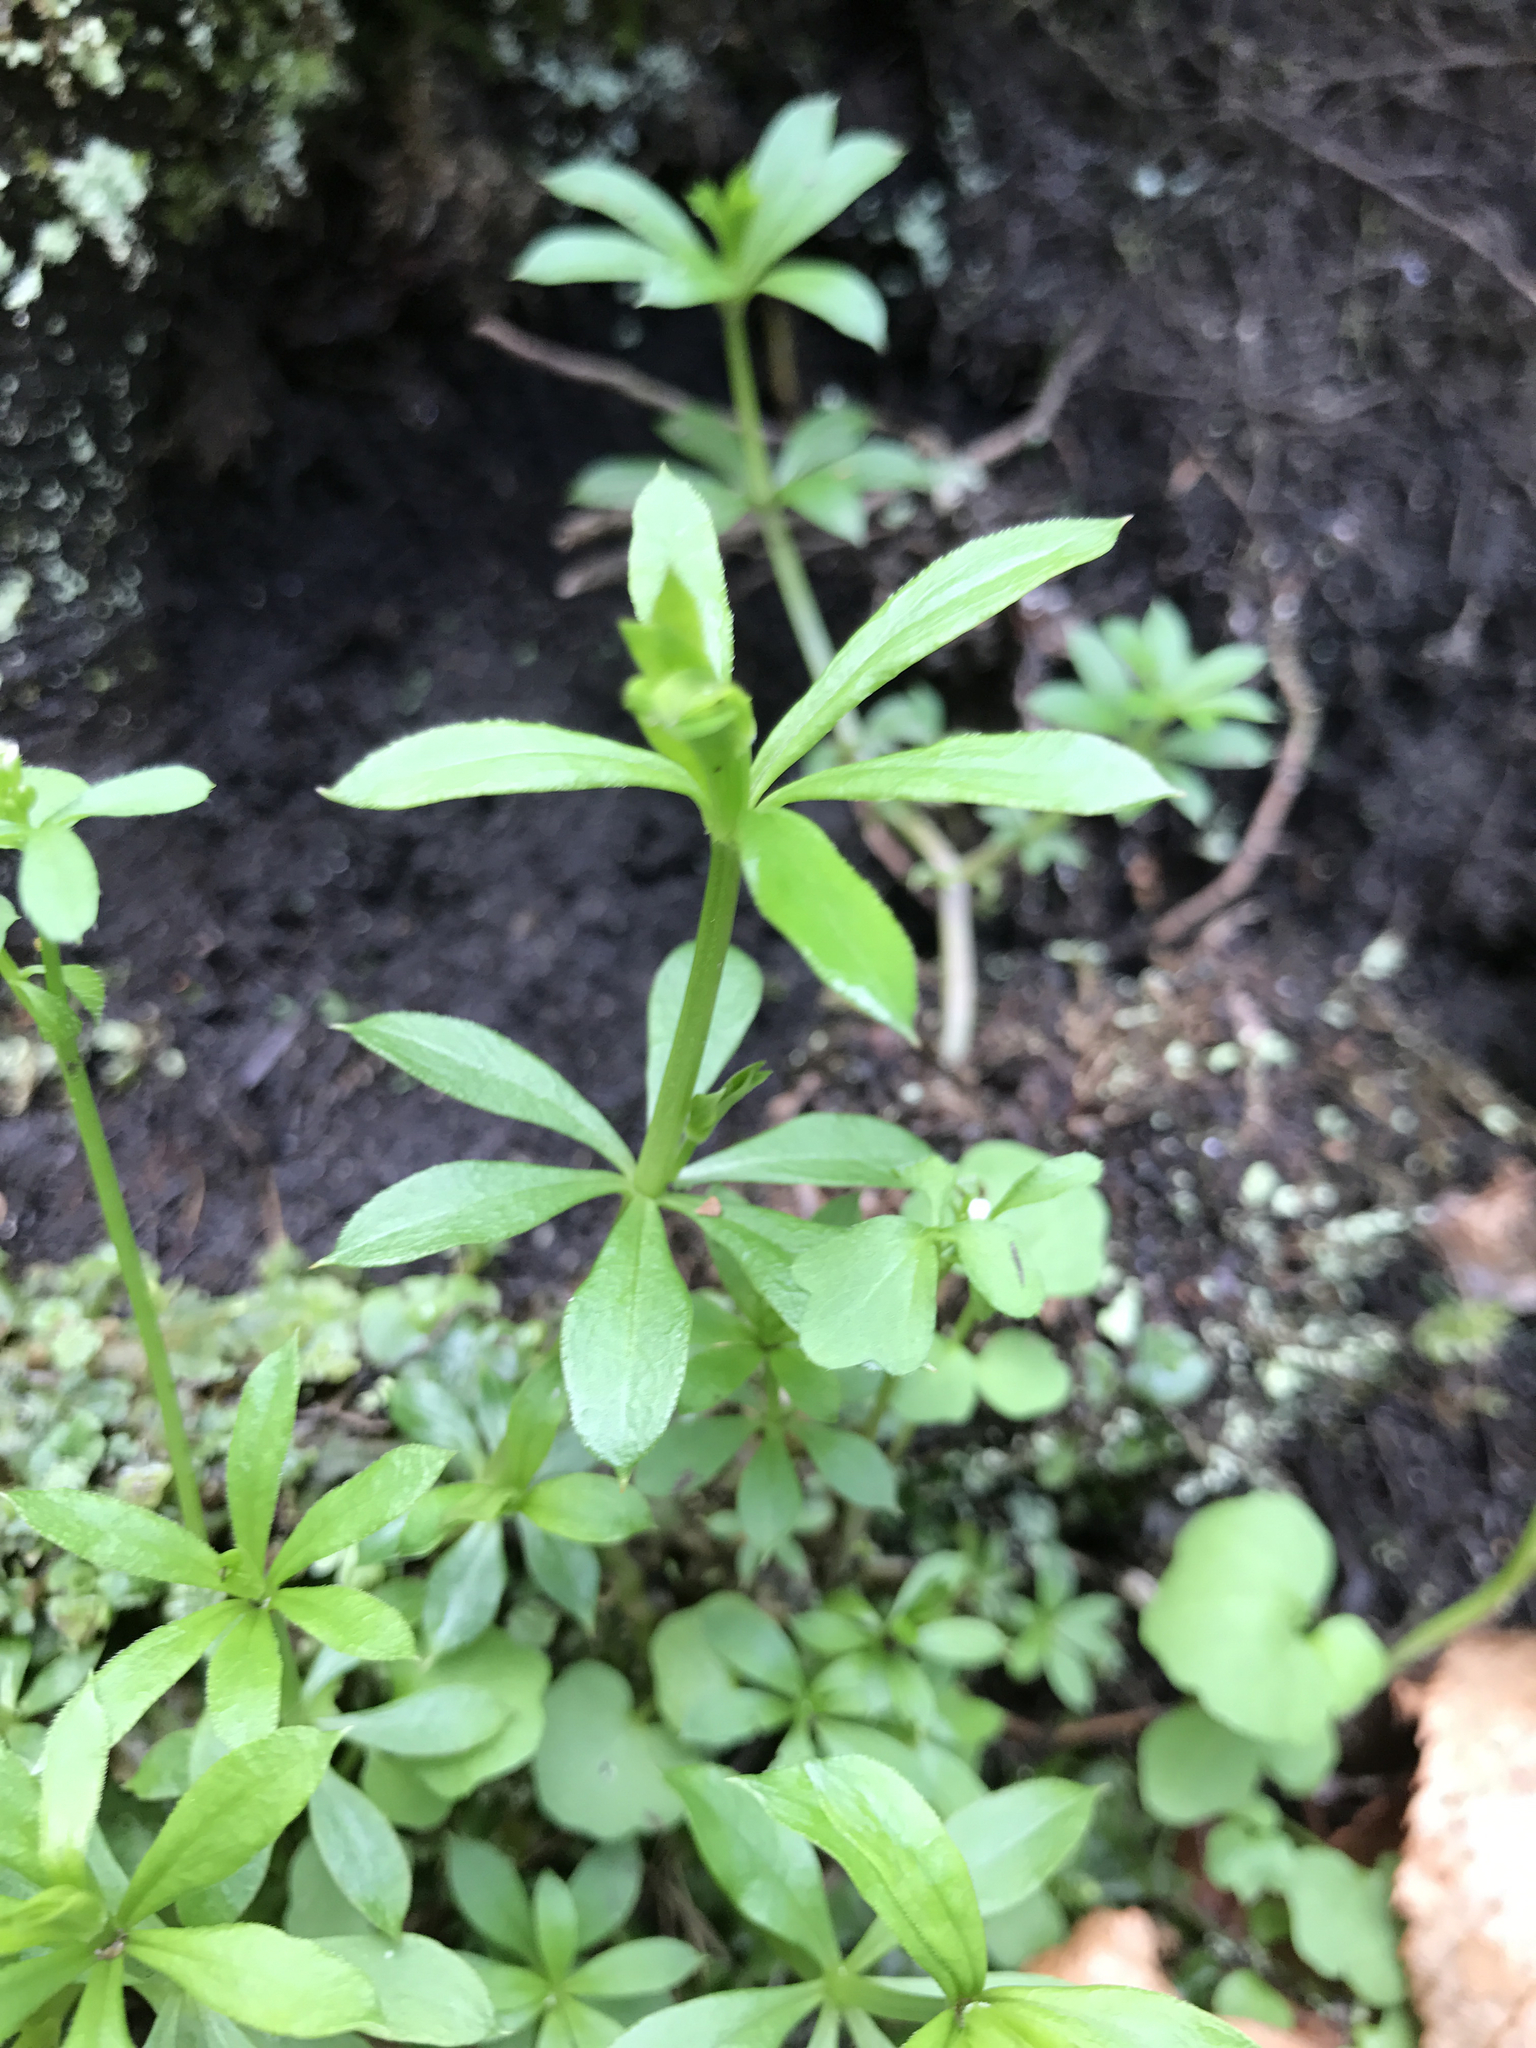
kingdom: Plantae
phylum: Tracheophyta
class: Magnoliopsida
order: Gentianales
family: Rubiaceae
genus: Galium
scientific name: Galium triflorum
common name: Fragrant bedstraw
